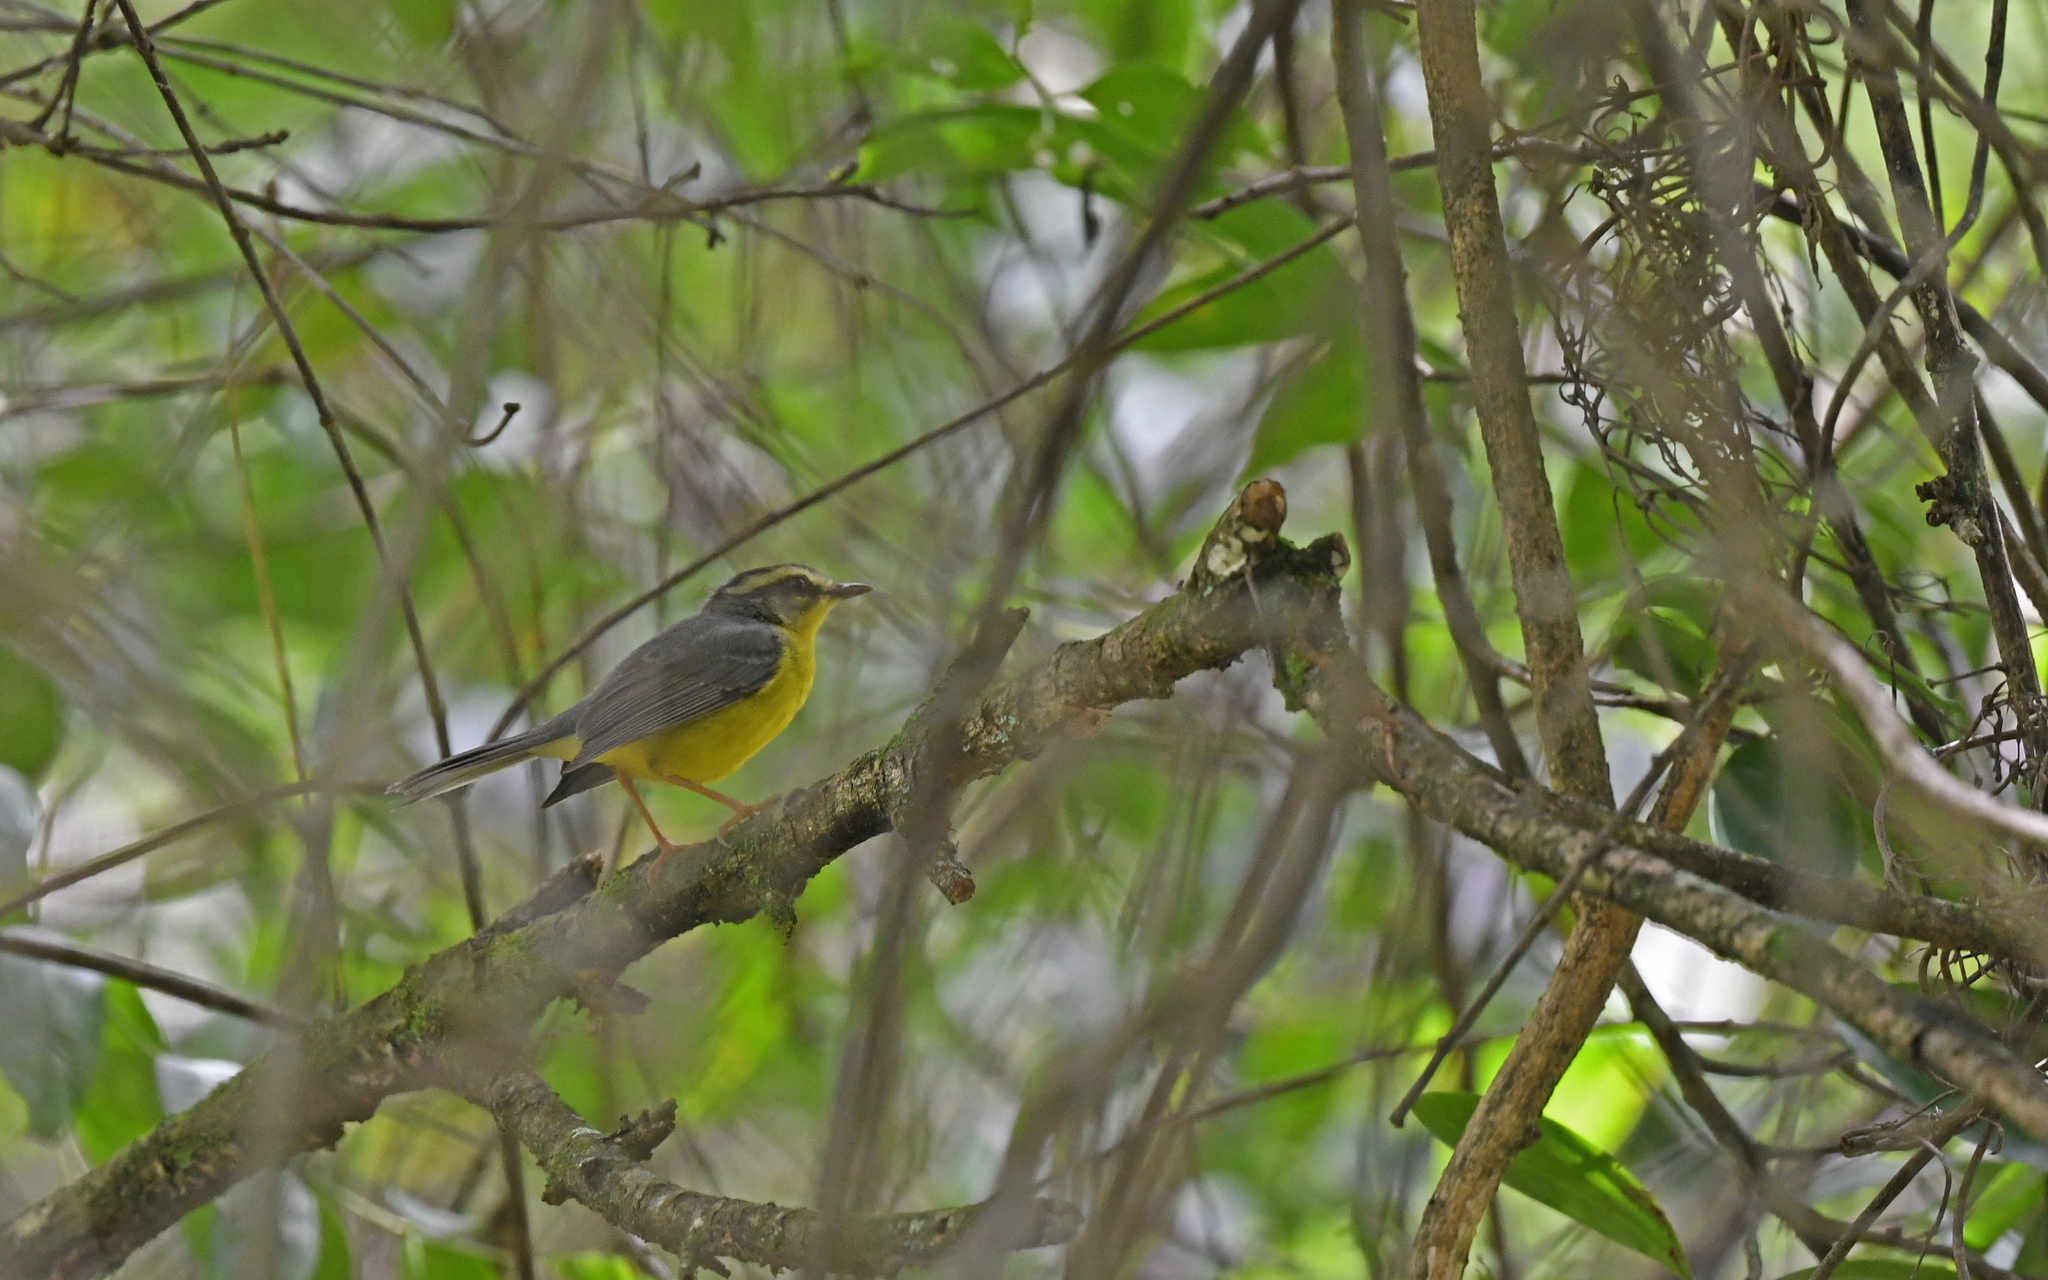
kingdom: Animalia
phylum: Chordata
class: Aves
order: Passeriformes
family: Parulidae
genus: Basileuterus
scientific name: Basileuterus culicivorus
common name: Golden-crowned warbler
